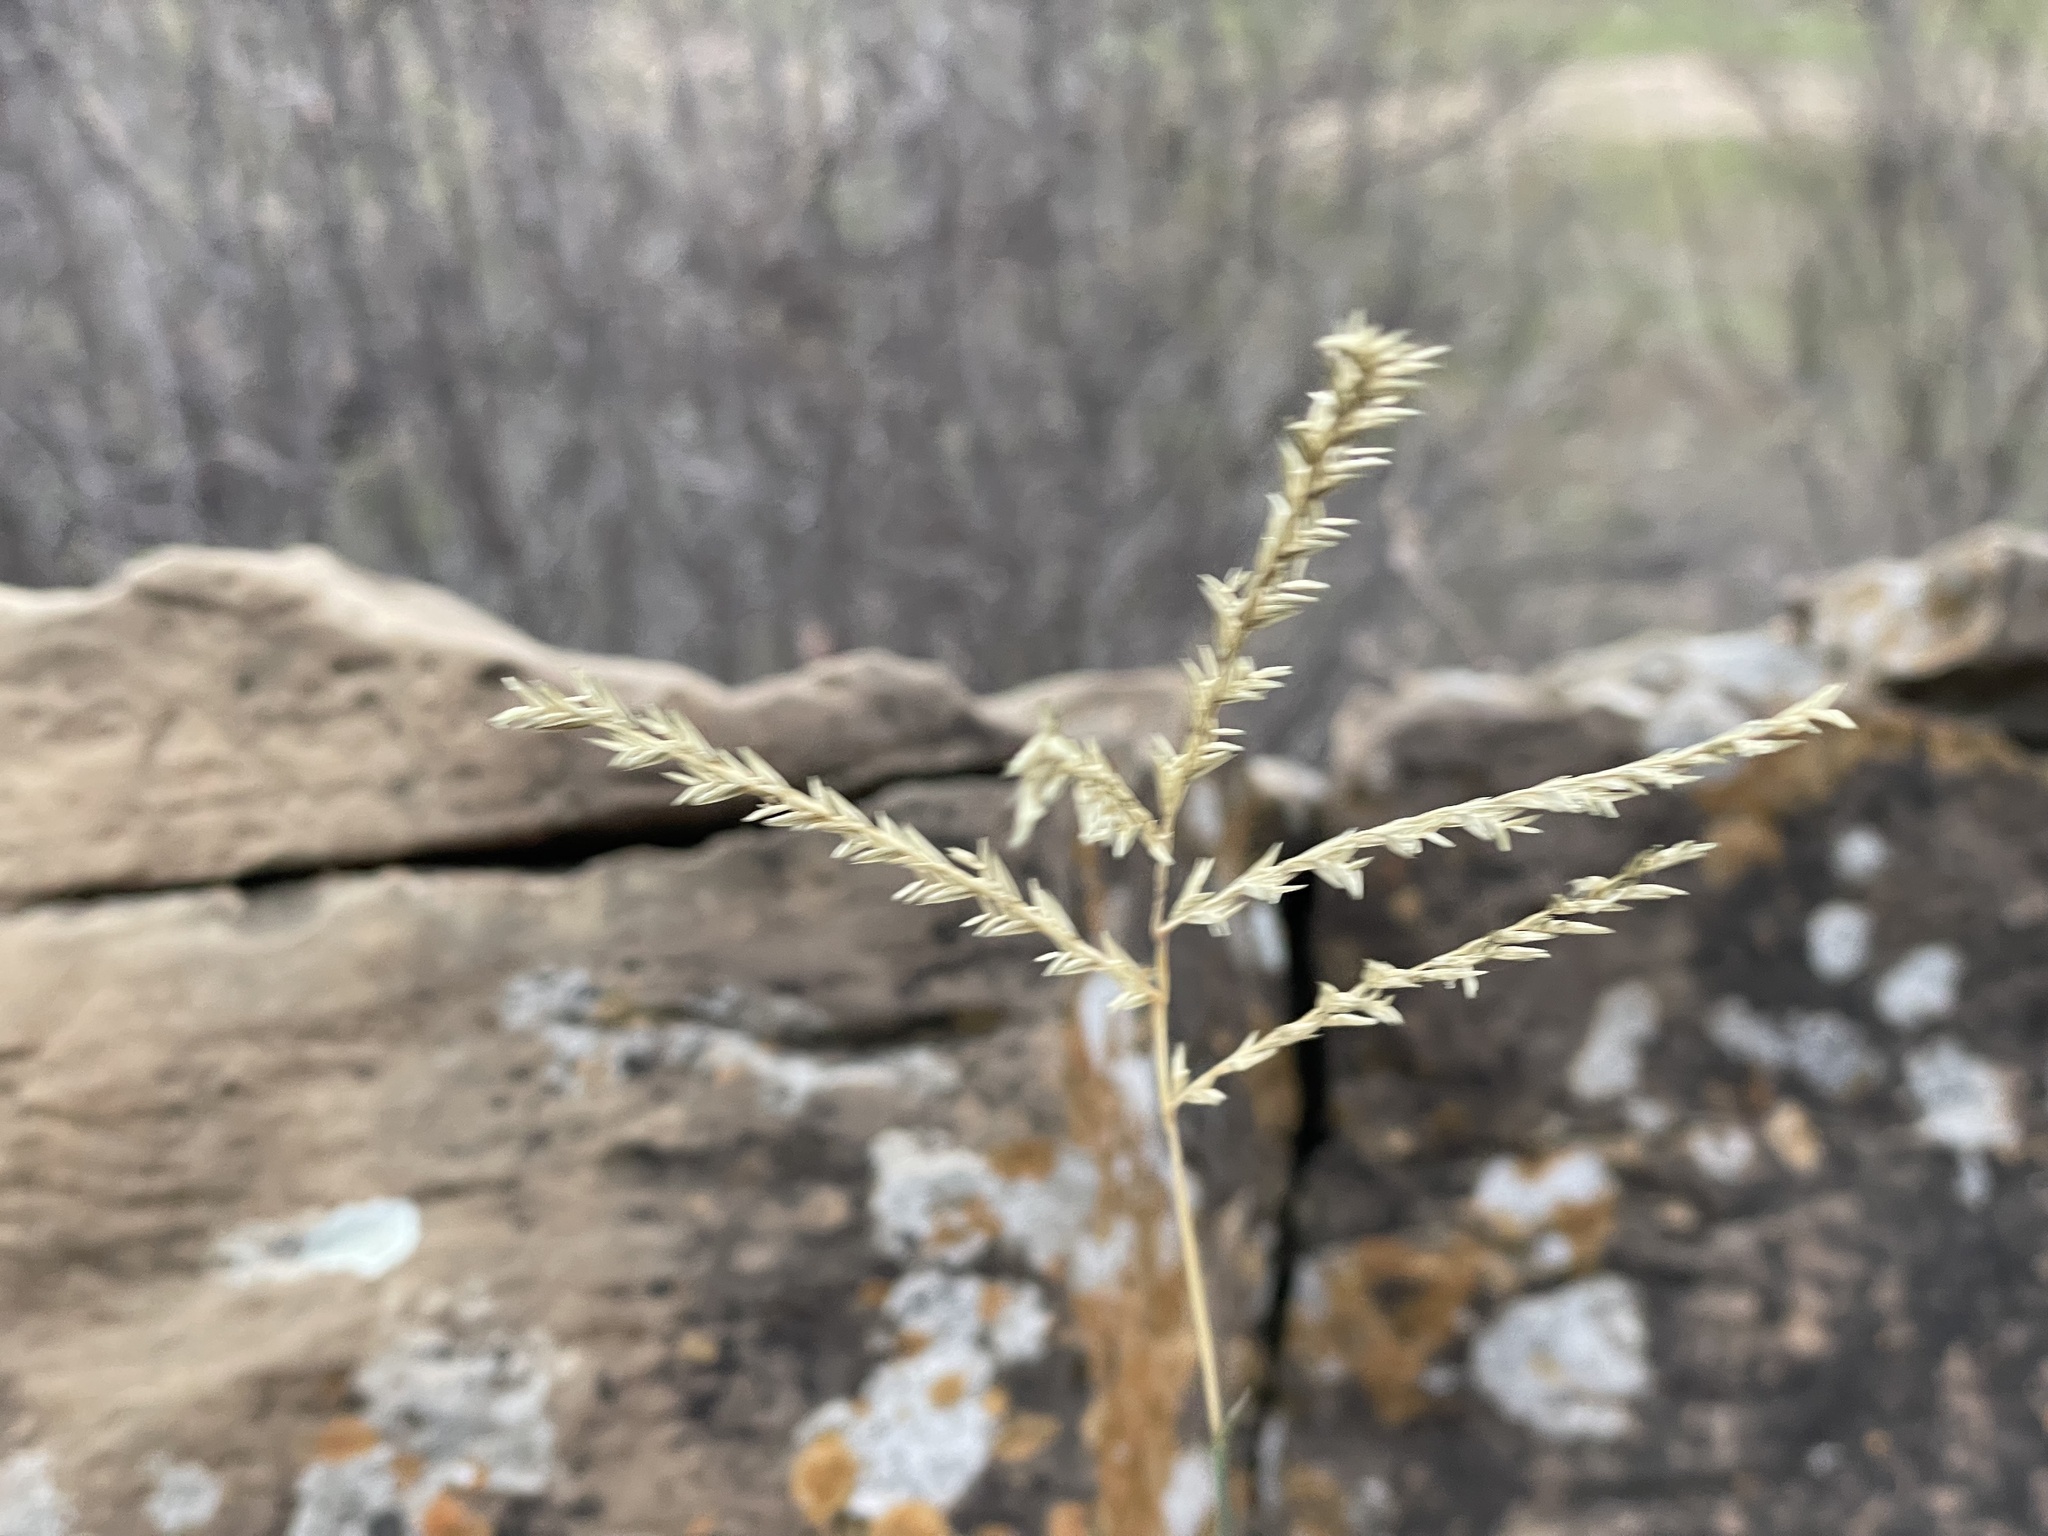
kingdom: Plantae
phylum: Tracheophyta
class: Liliopsida
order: Poales
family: Poaceae
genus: Disakisperma
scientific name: Disakisperma dubium
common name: Green sprangletop
